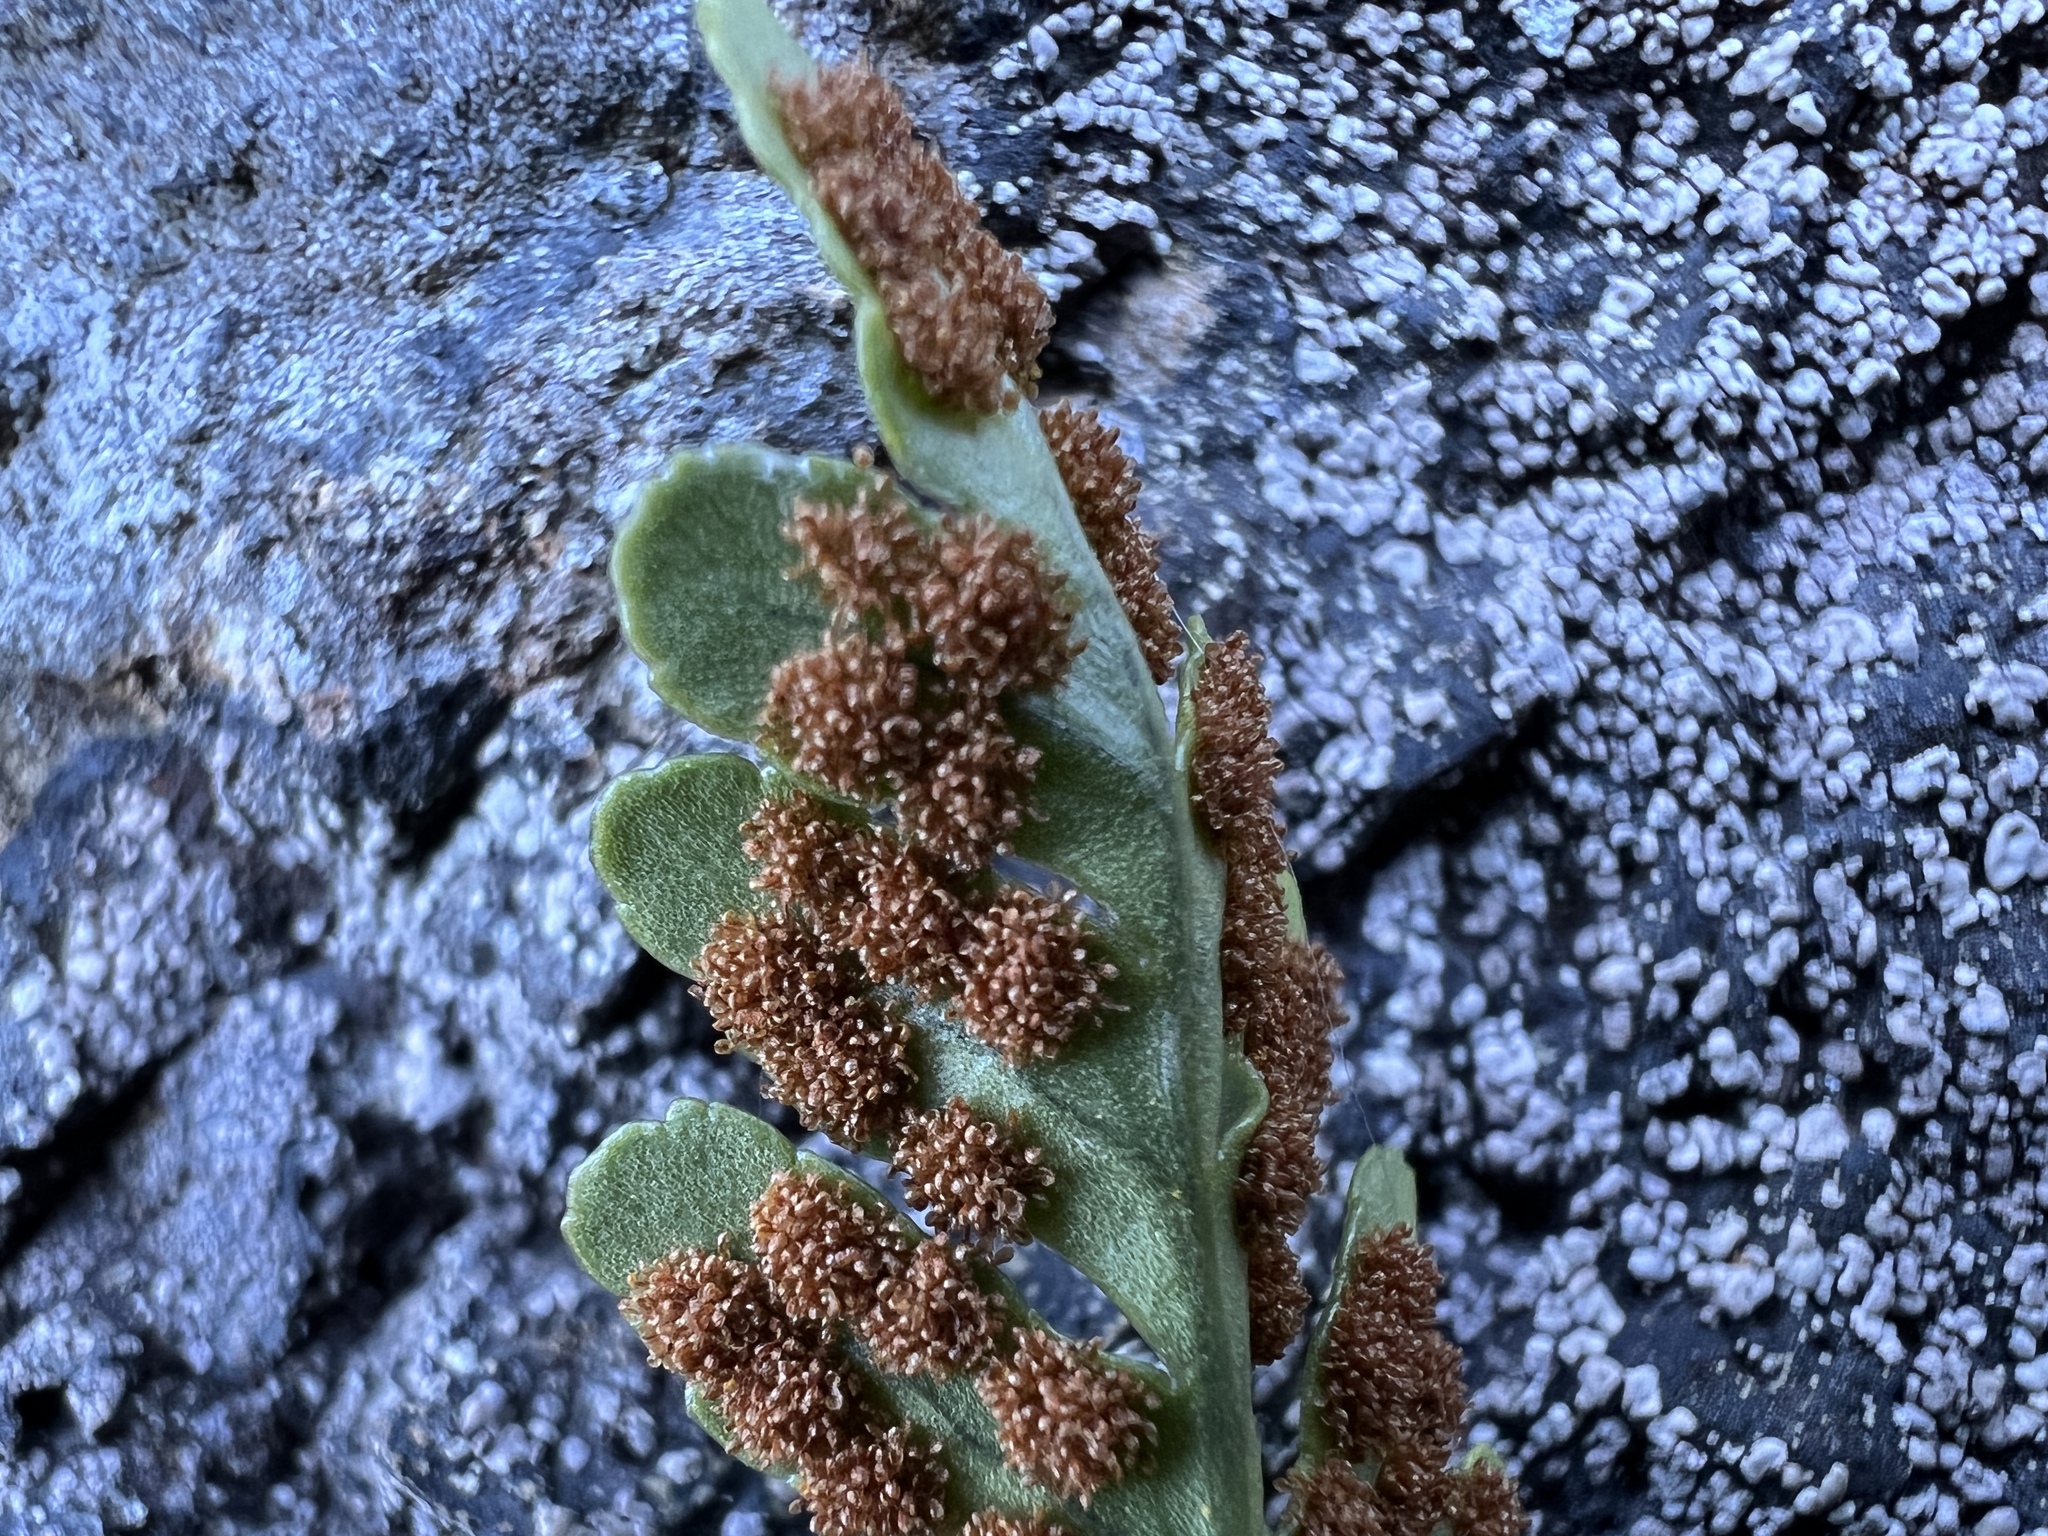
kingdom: Plantae
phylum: Tracheophyta
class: Polypodiopsida
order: Polypodiales
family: Polypodiaceae
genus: Polypodium
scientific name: Polypodium amorphum
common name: Pacific polypody
